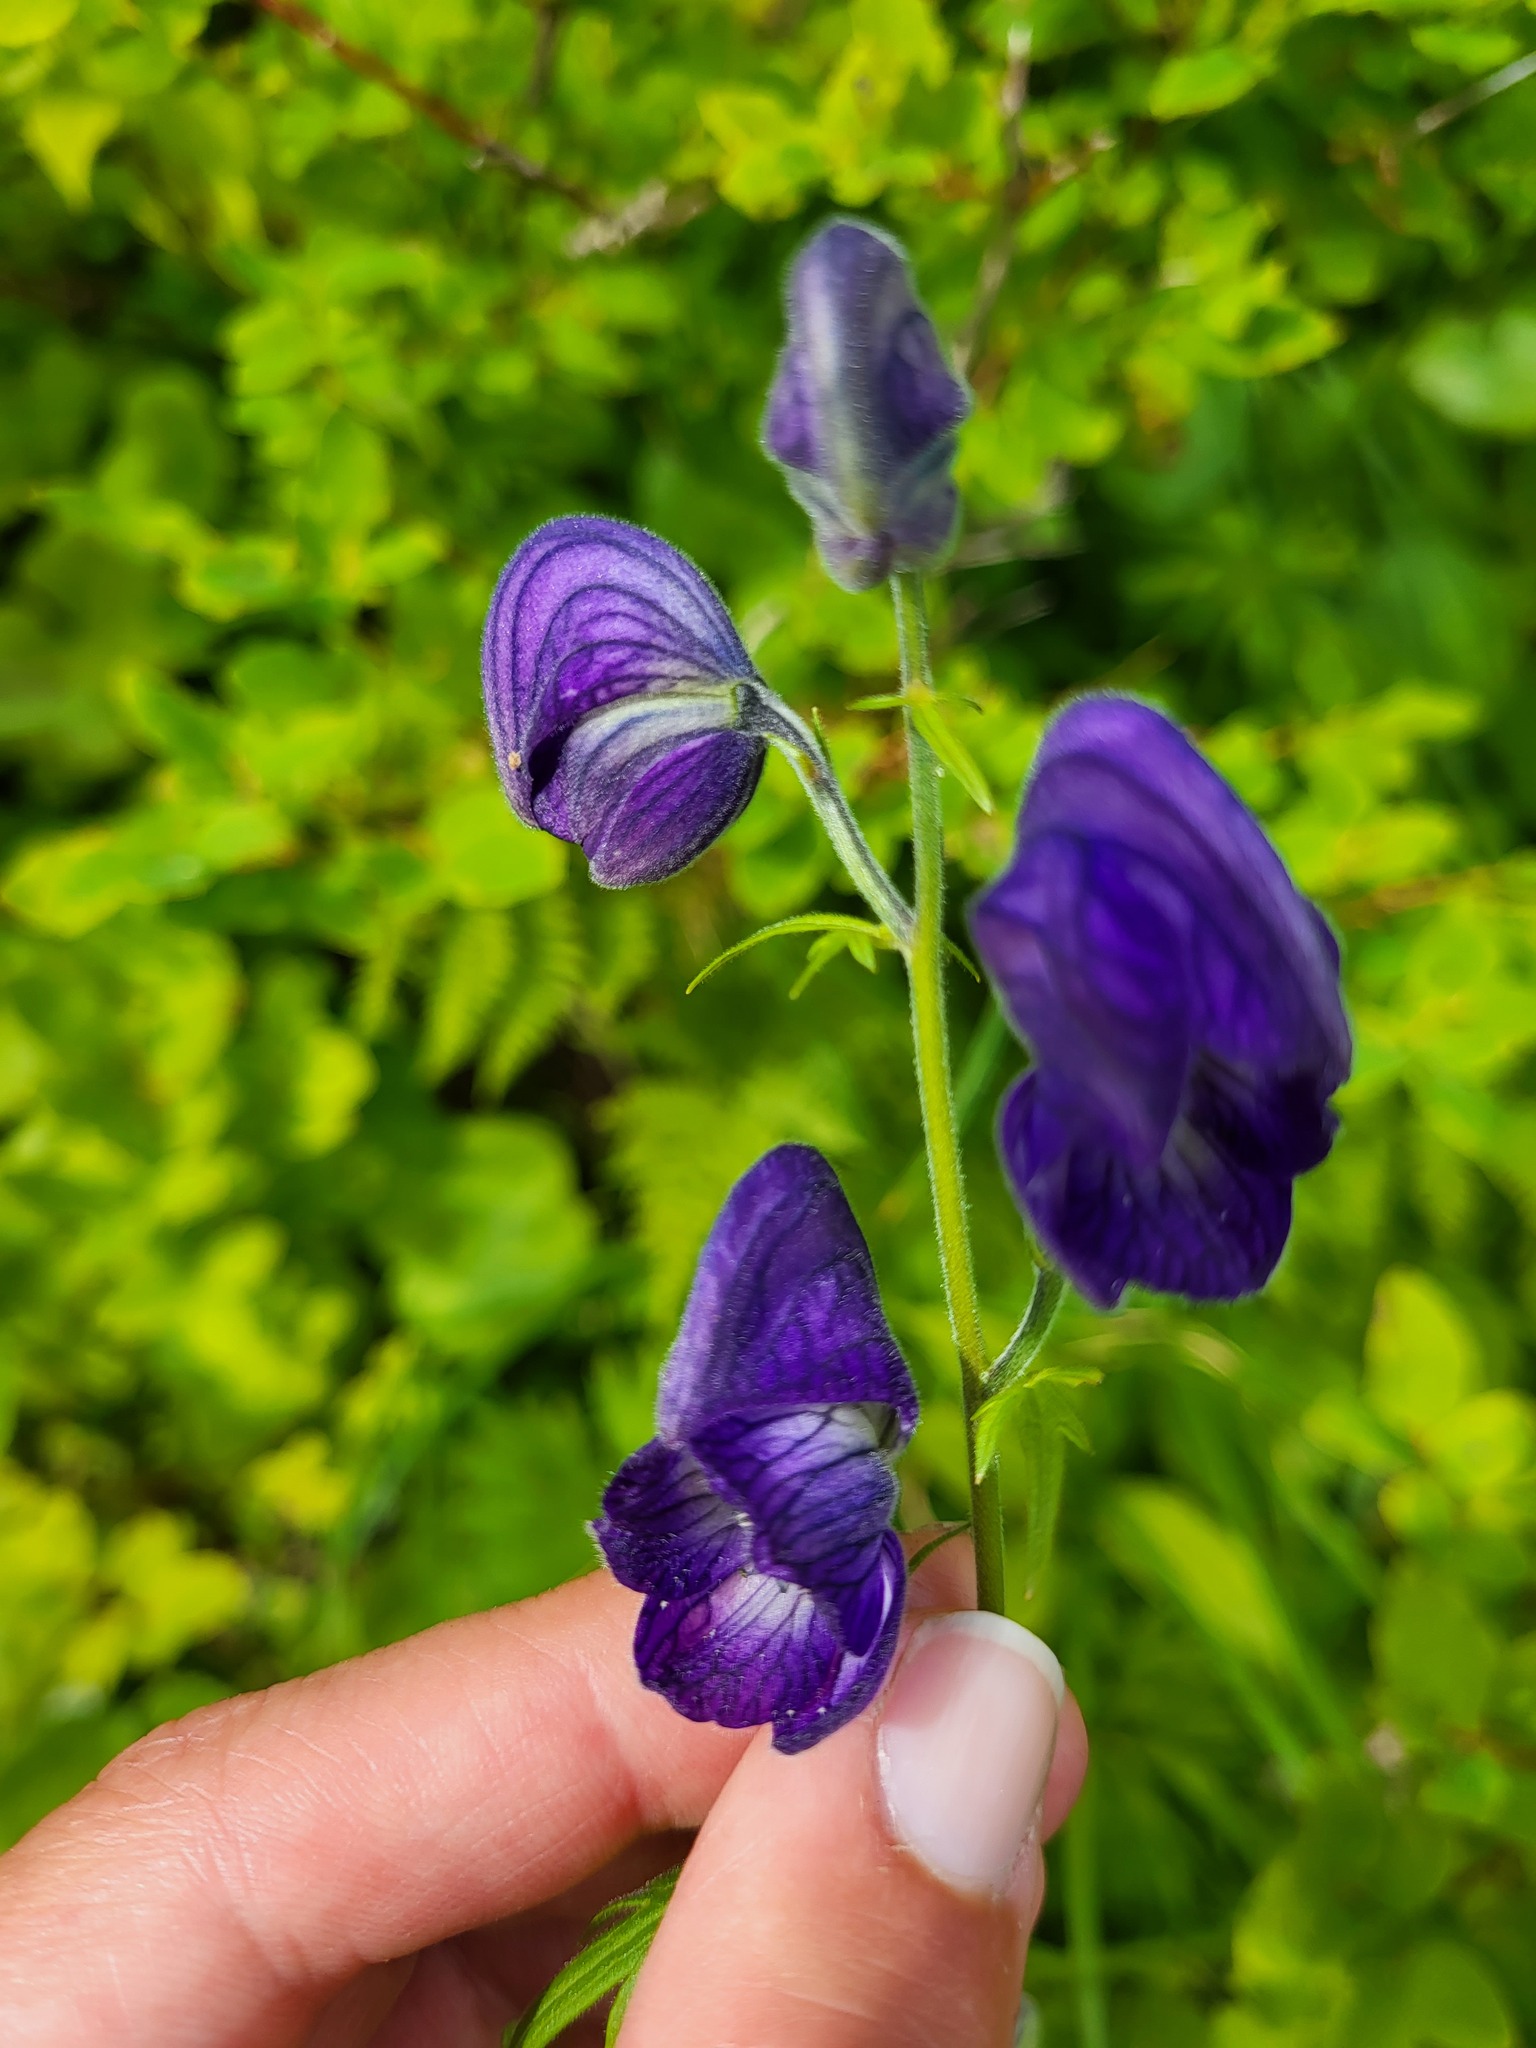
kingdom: Plantae
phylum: Tracheophyta
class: Magnoliopsida
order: Ranunculales
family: Ranunculaceae
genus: Aconitum
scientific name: Aconitum delphiniifolium
